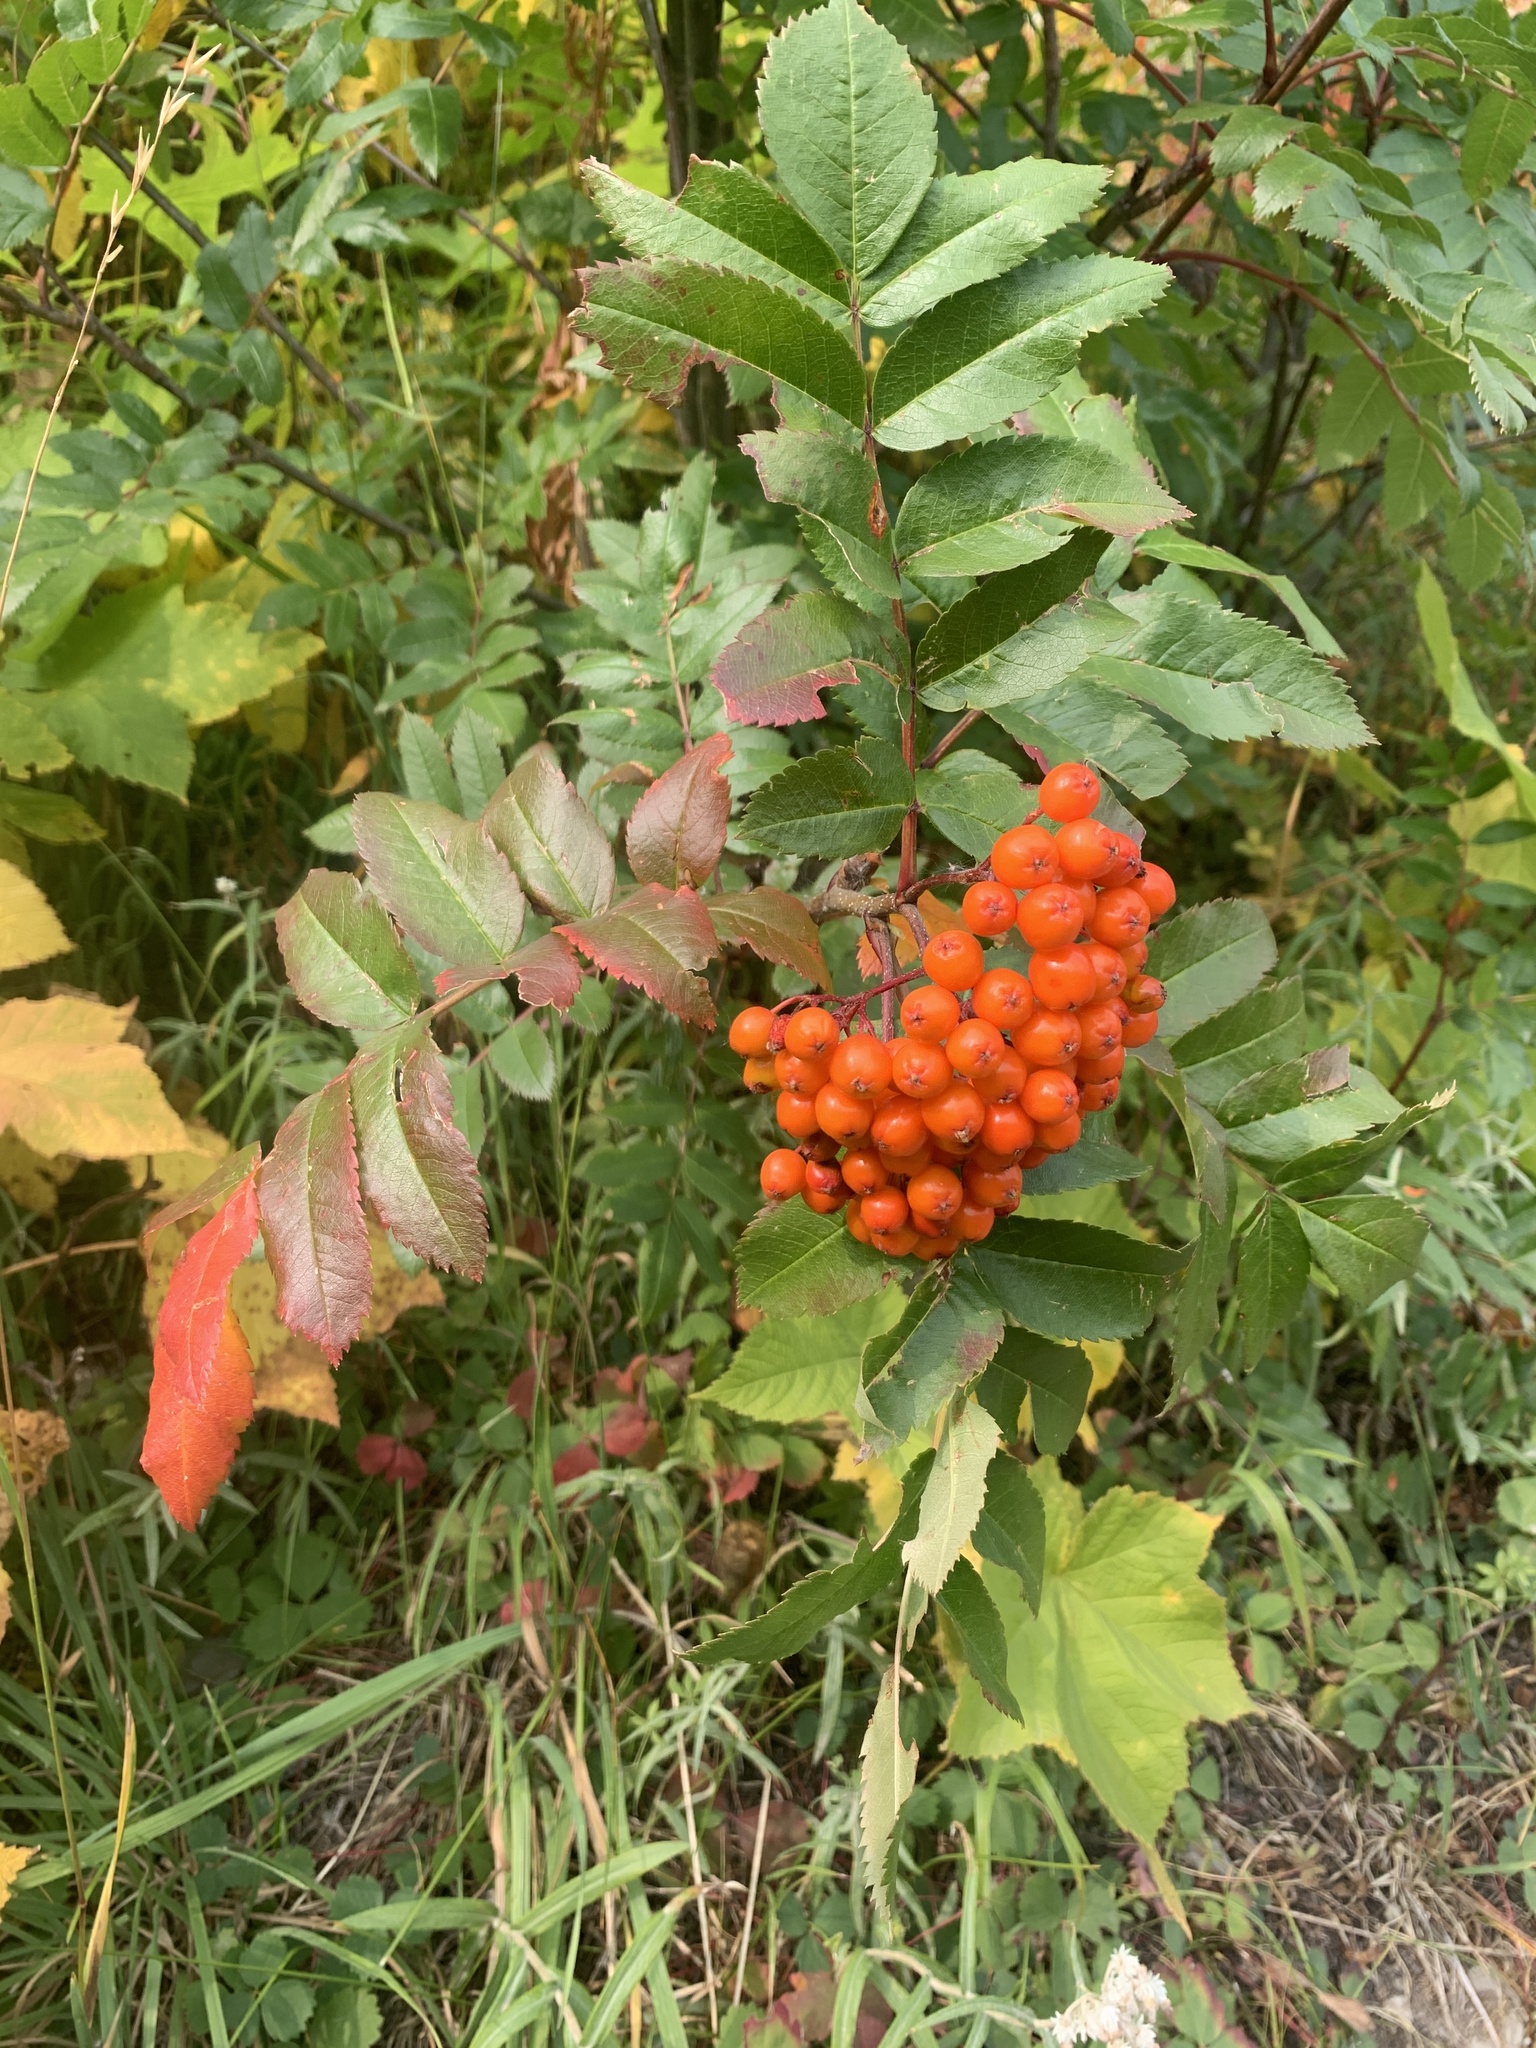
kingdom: Plantae
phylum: Tracheophyta
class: Magnoliopsida
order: Rosales
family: Rosaceae
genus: Sorbus
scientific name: Sorbus aucuparia
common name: Rowan
